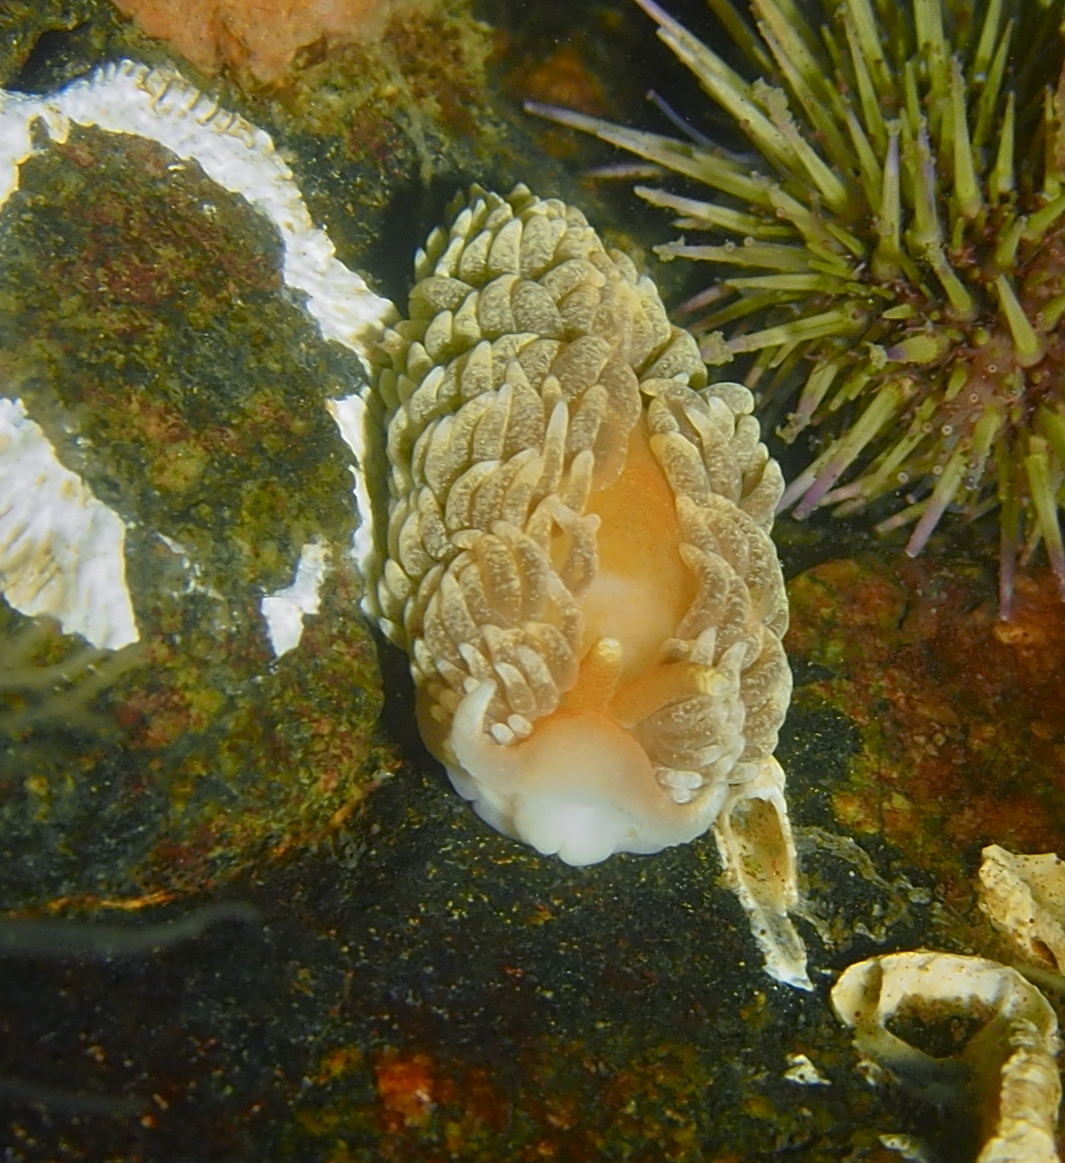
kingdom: Animalia
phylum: Mollusca
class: Gastropoda
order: Nudibranchia
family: Aeolidiidae
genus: Aeolidiella
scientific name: Aeolidiella glauca
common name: Orange-brown aeolid
